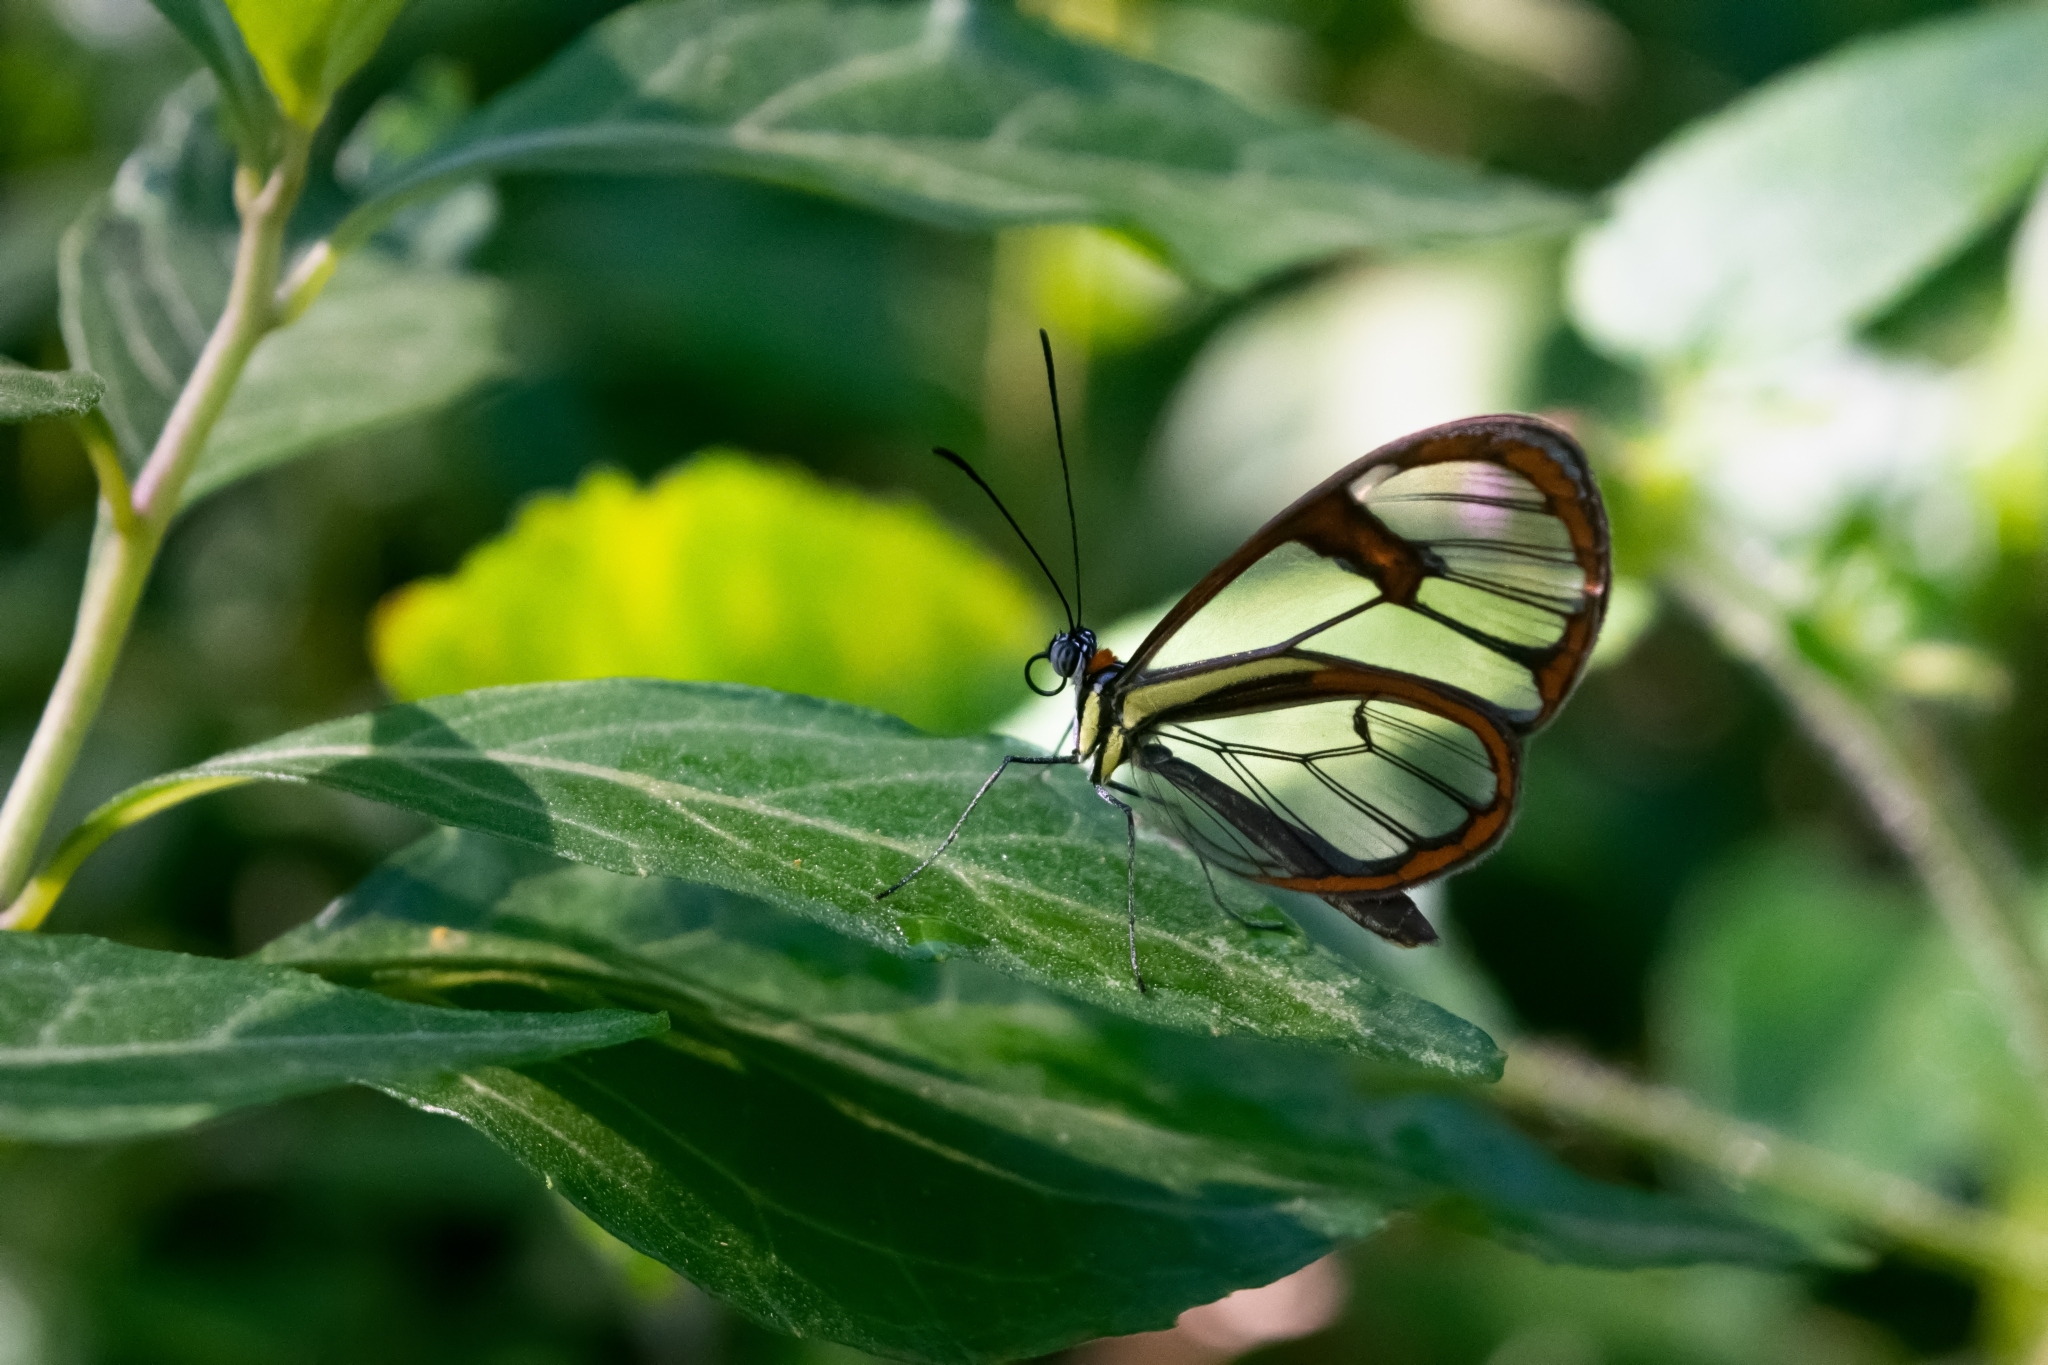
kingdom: Animalia
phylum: Arthropoda
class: Insecta
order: Lepidoptera
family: Nymphalidae
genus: Ithomia
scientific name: Ithomia drymo
